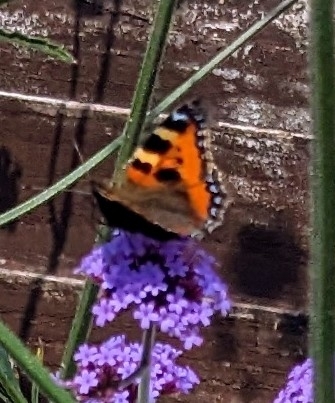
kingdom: Animalia
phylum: Arthropoda
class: Insecta
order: Lepidoptera
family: Nymphalidae
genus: Aglais
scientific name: Aglais urticae
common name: Small tortoiseshell
